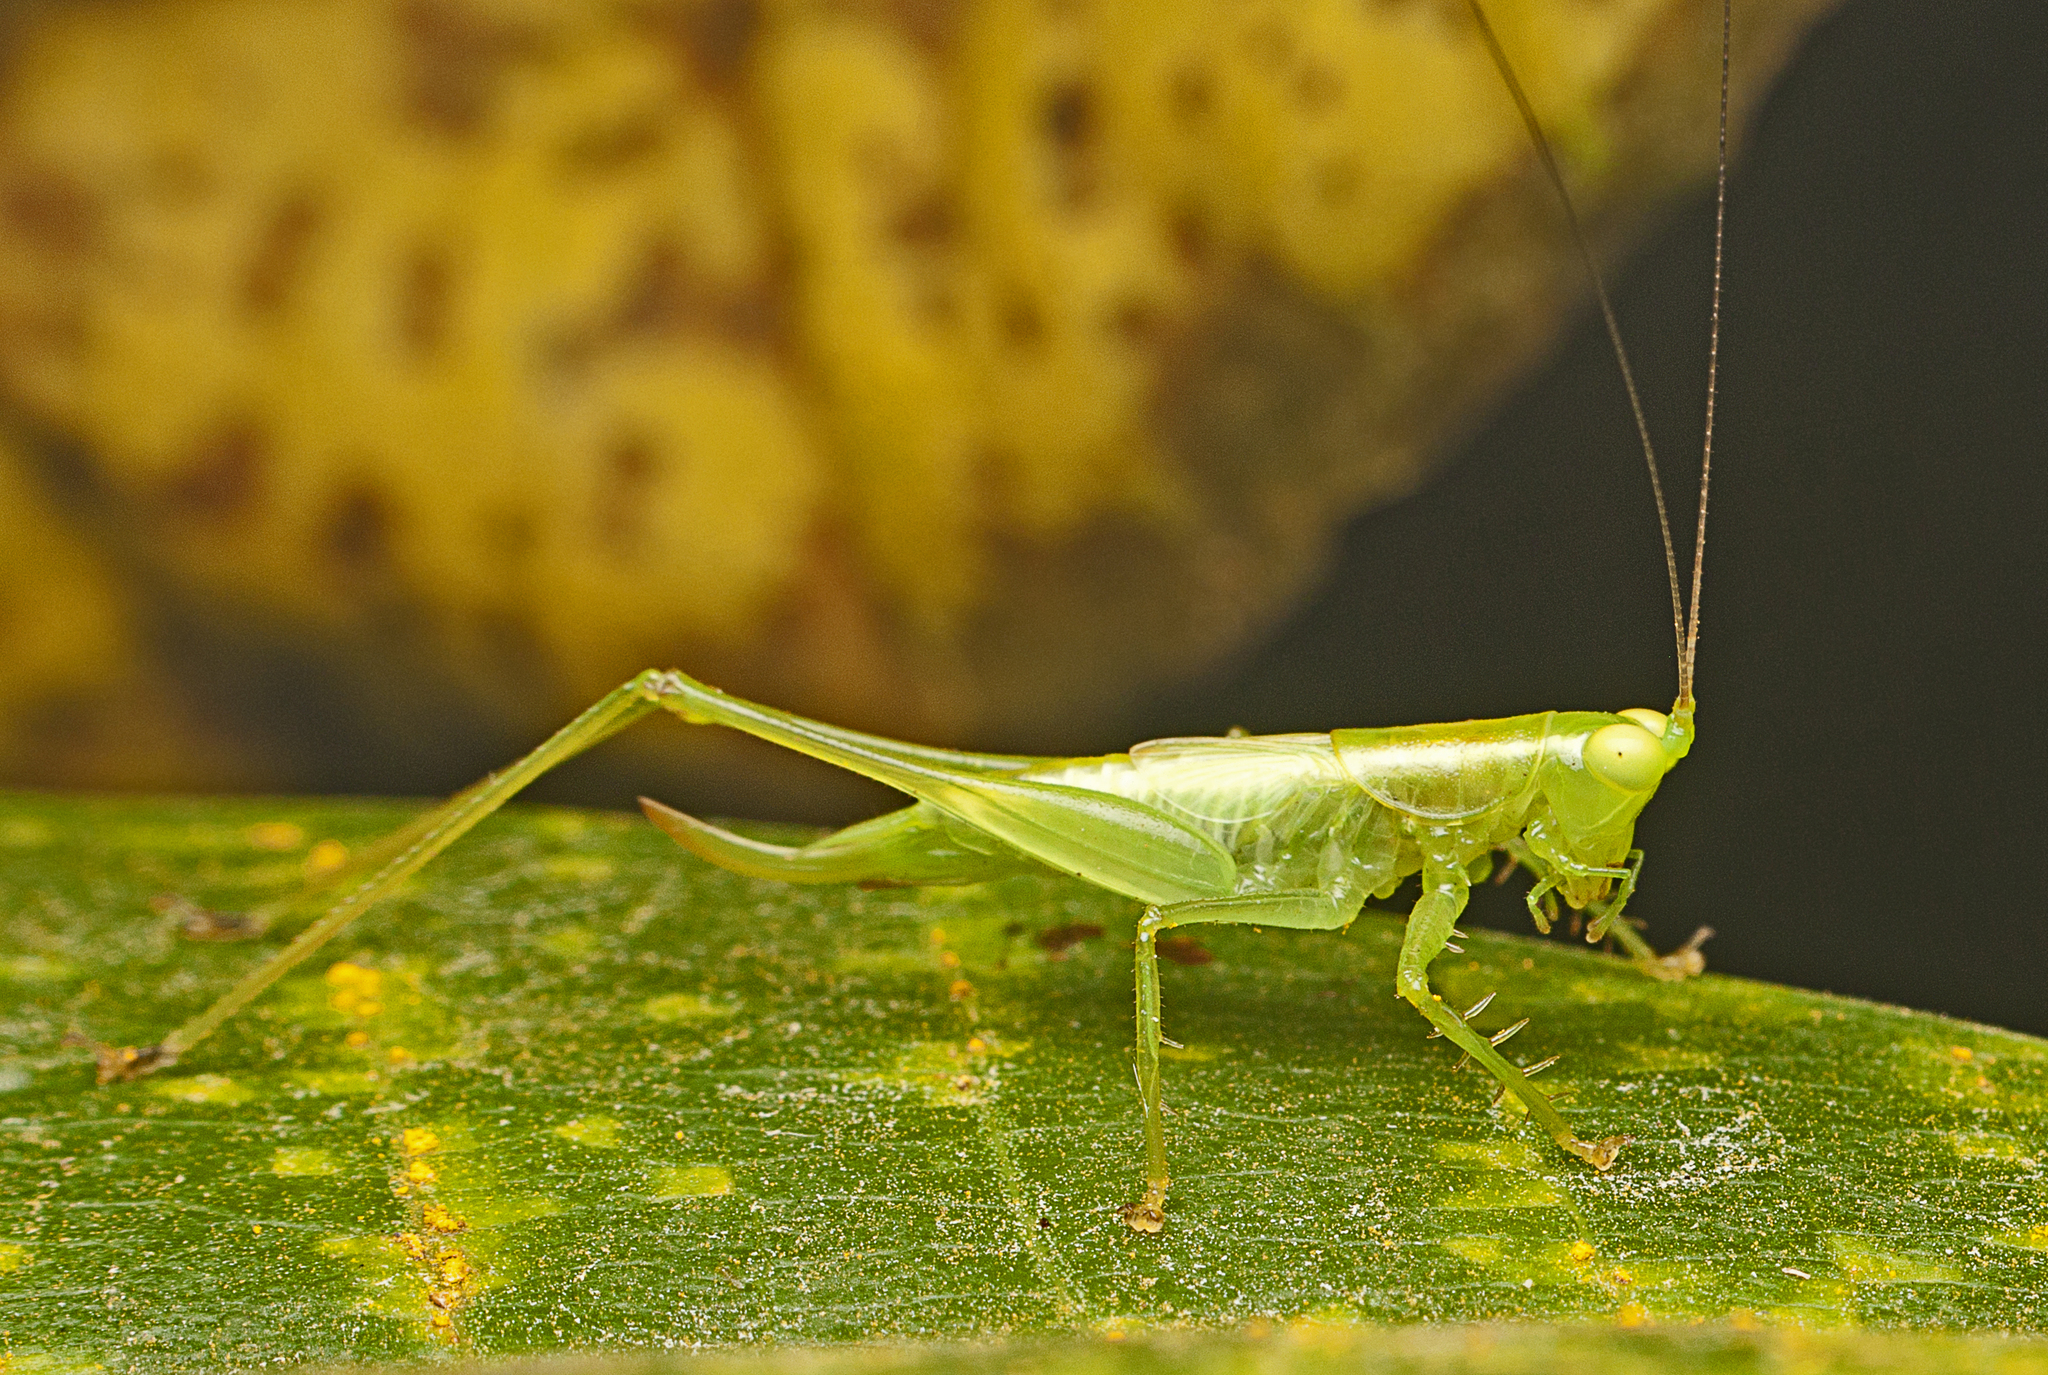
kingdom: Animalia
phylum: Arthropoda
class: Insecta
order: Orthoptera
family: Tettigoniidae
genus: Austrophlugis
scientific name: Austrophlugis orumbera
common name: Orumbera swayer
